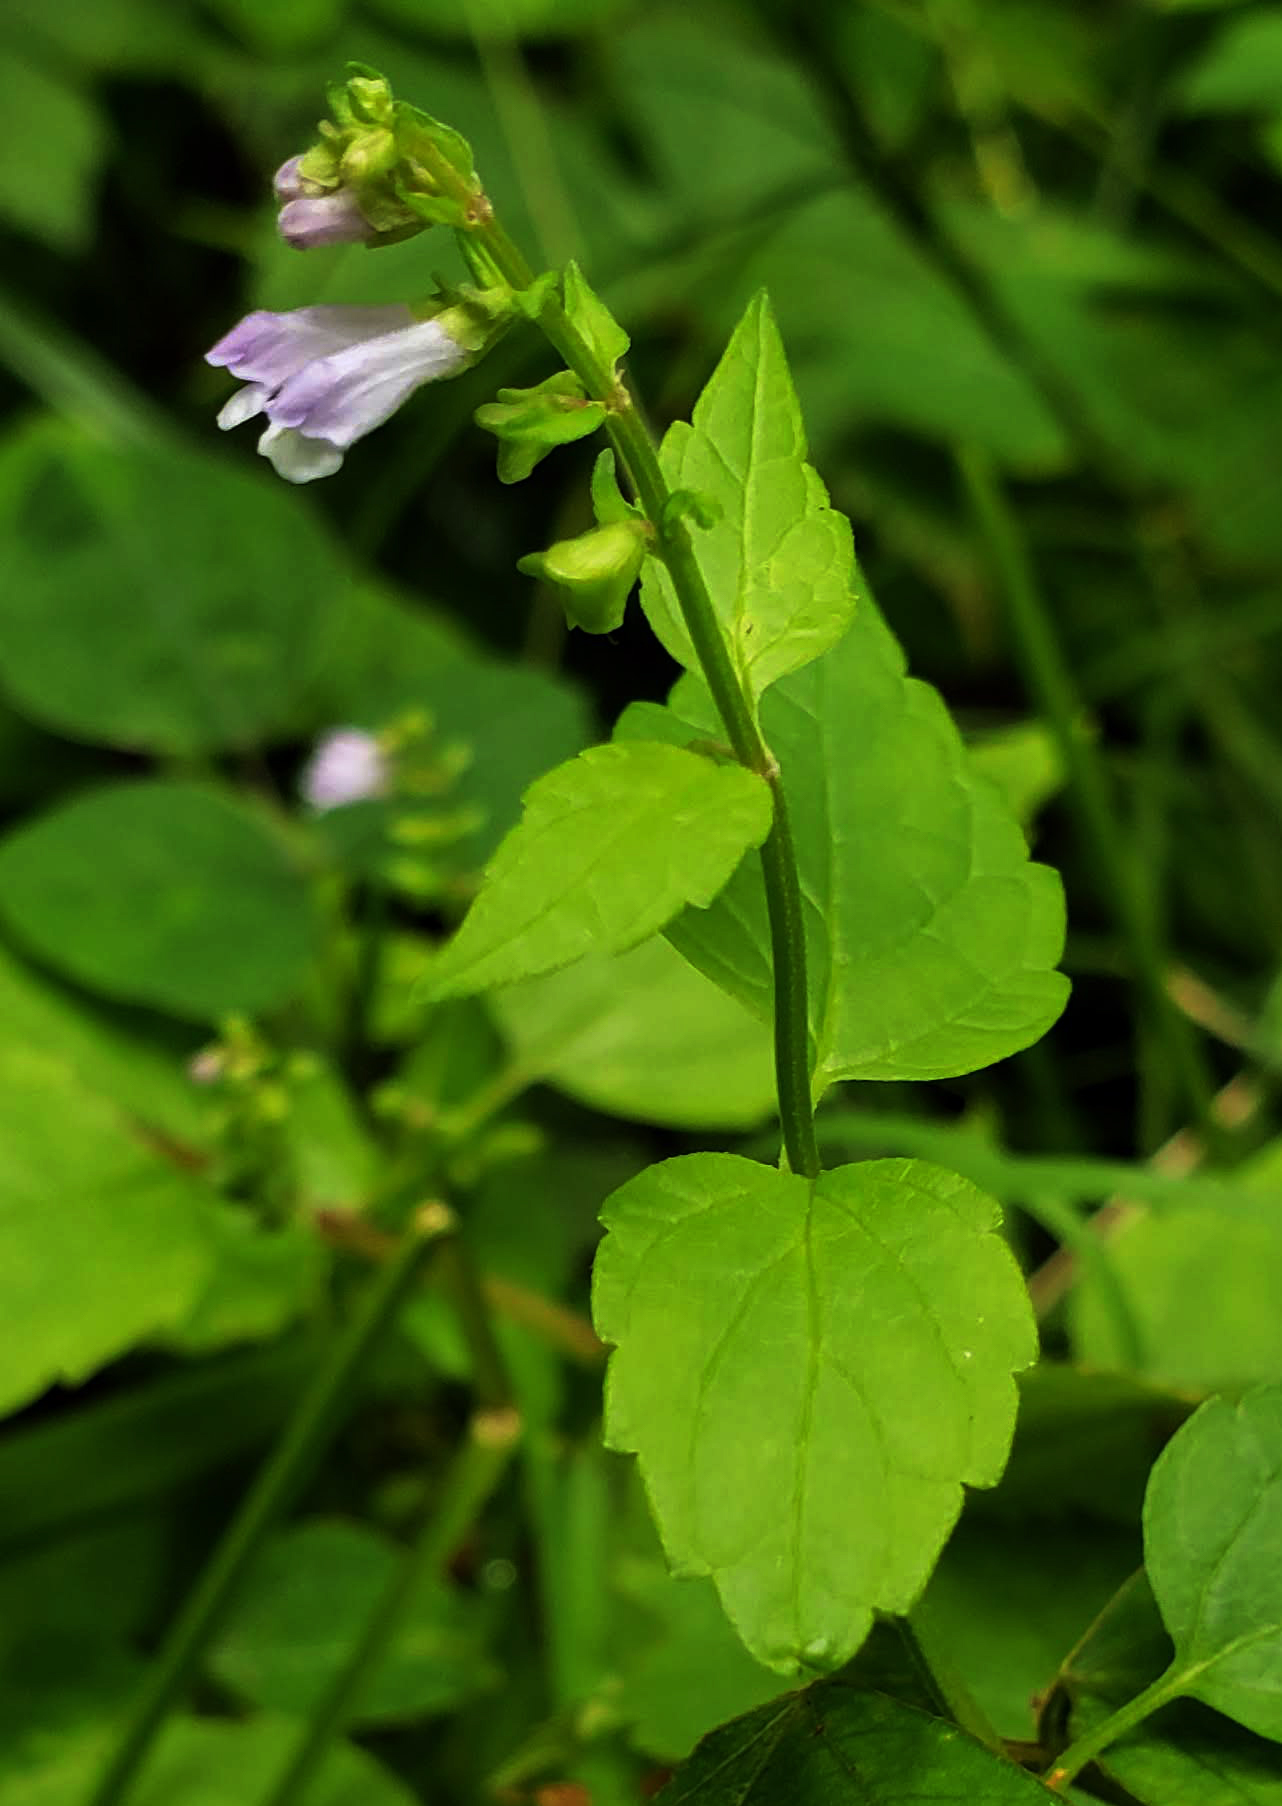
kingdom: Plantae
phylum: Tracheophyta
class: Magnoliopsida
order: Lamiales
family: Lamiaceae
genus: Scutellaria
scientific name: Scutellaria lateriflora
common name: Blue skullcap
